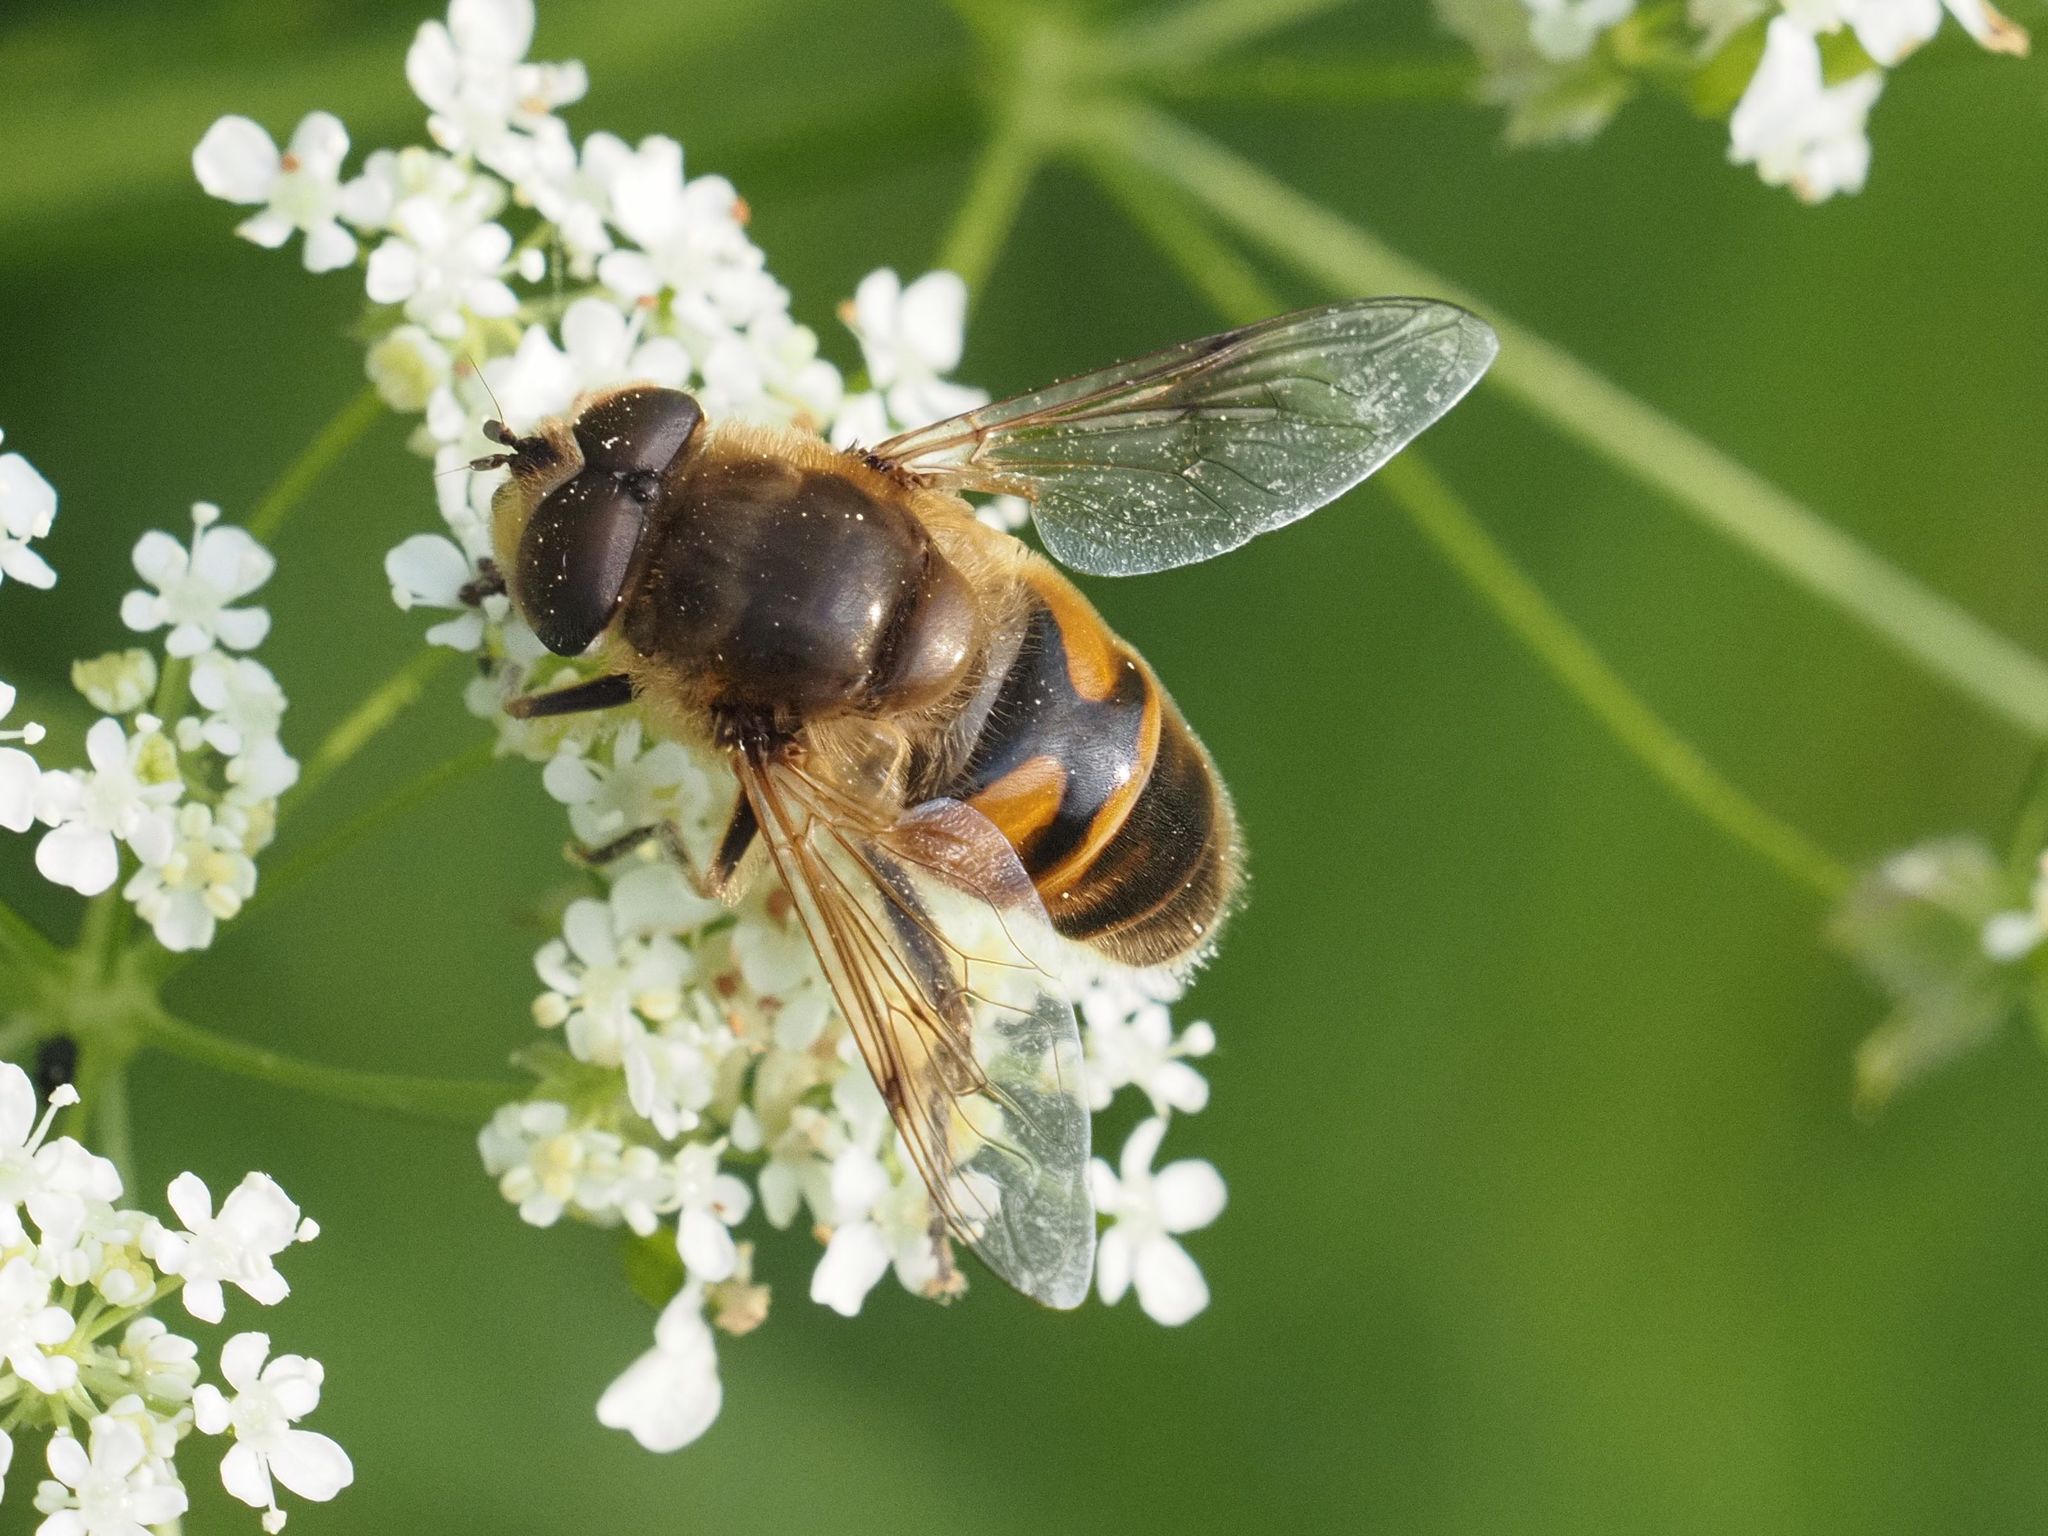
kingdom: Animalia
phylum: Arthropoda
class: Insecta
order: Diptera
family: Syrphidae
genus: Eristalis
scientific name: Eristalis tenax
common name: Drone fly
